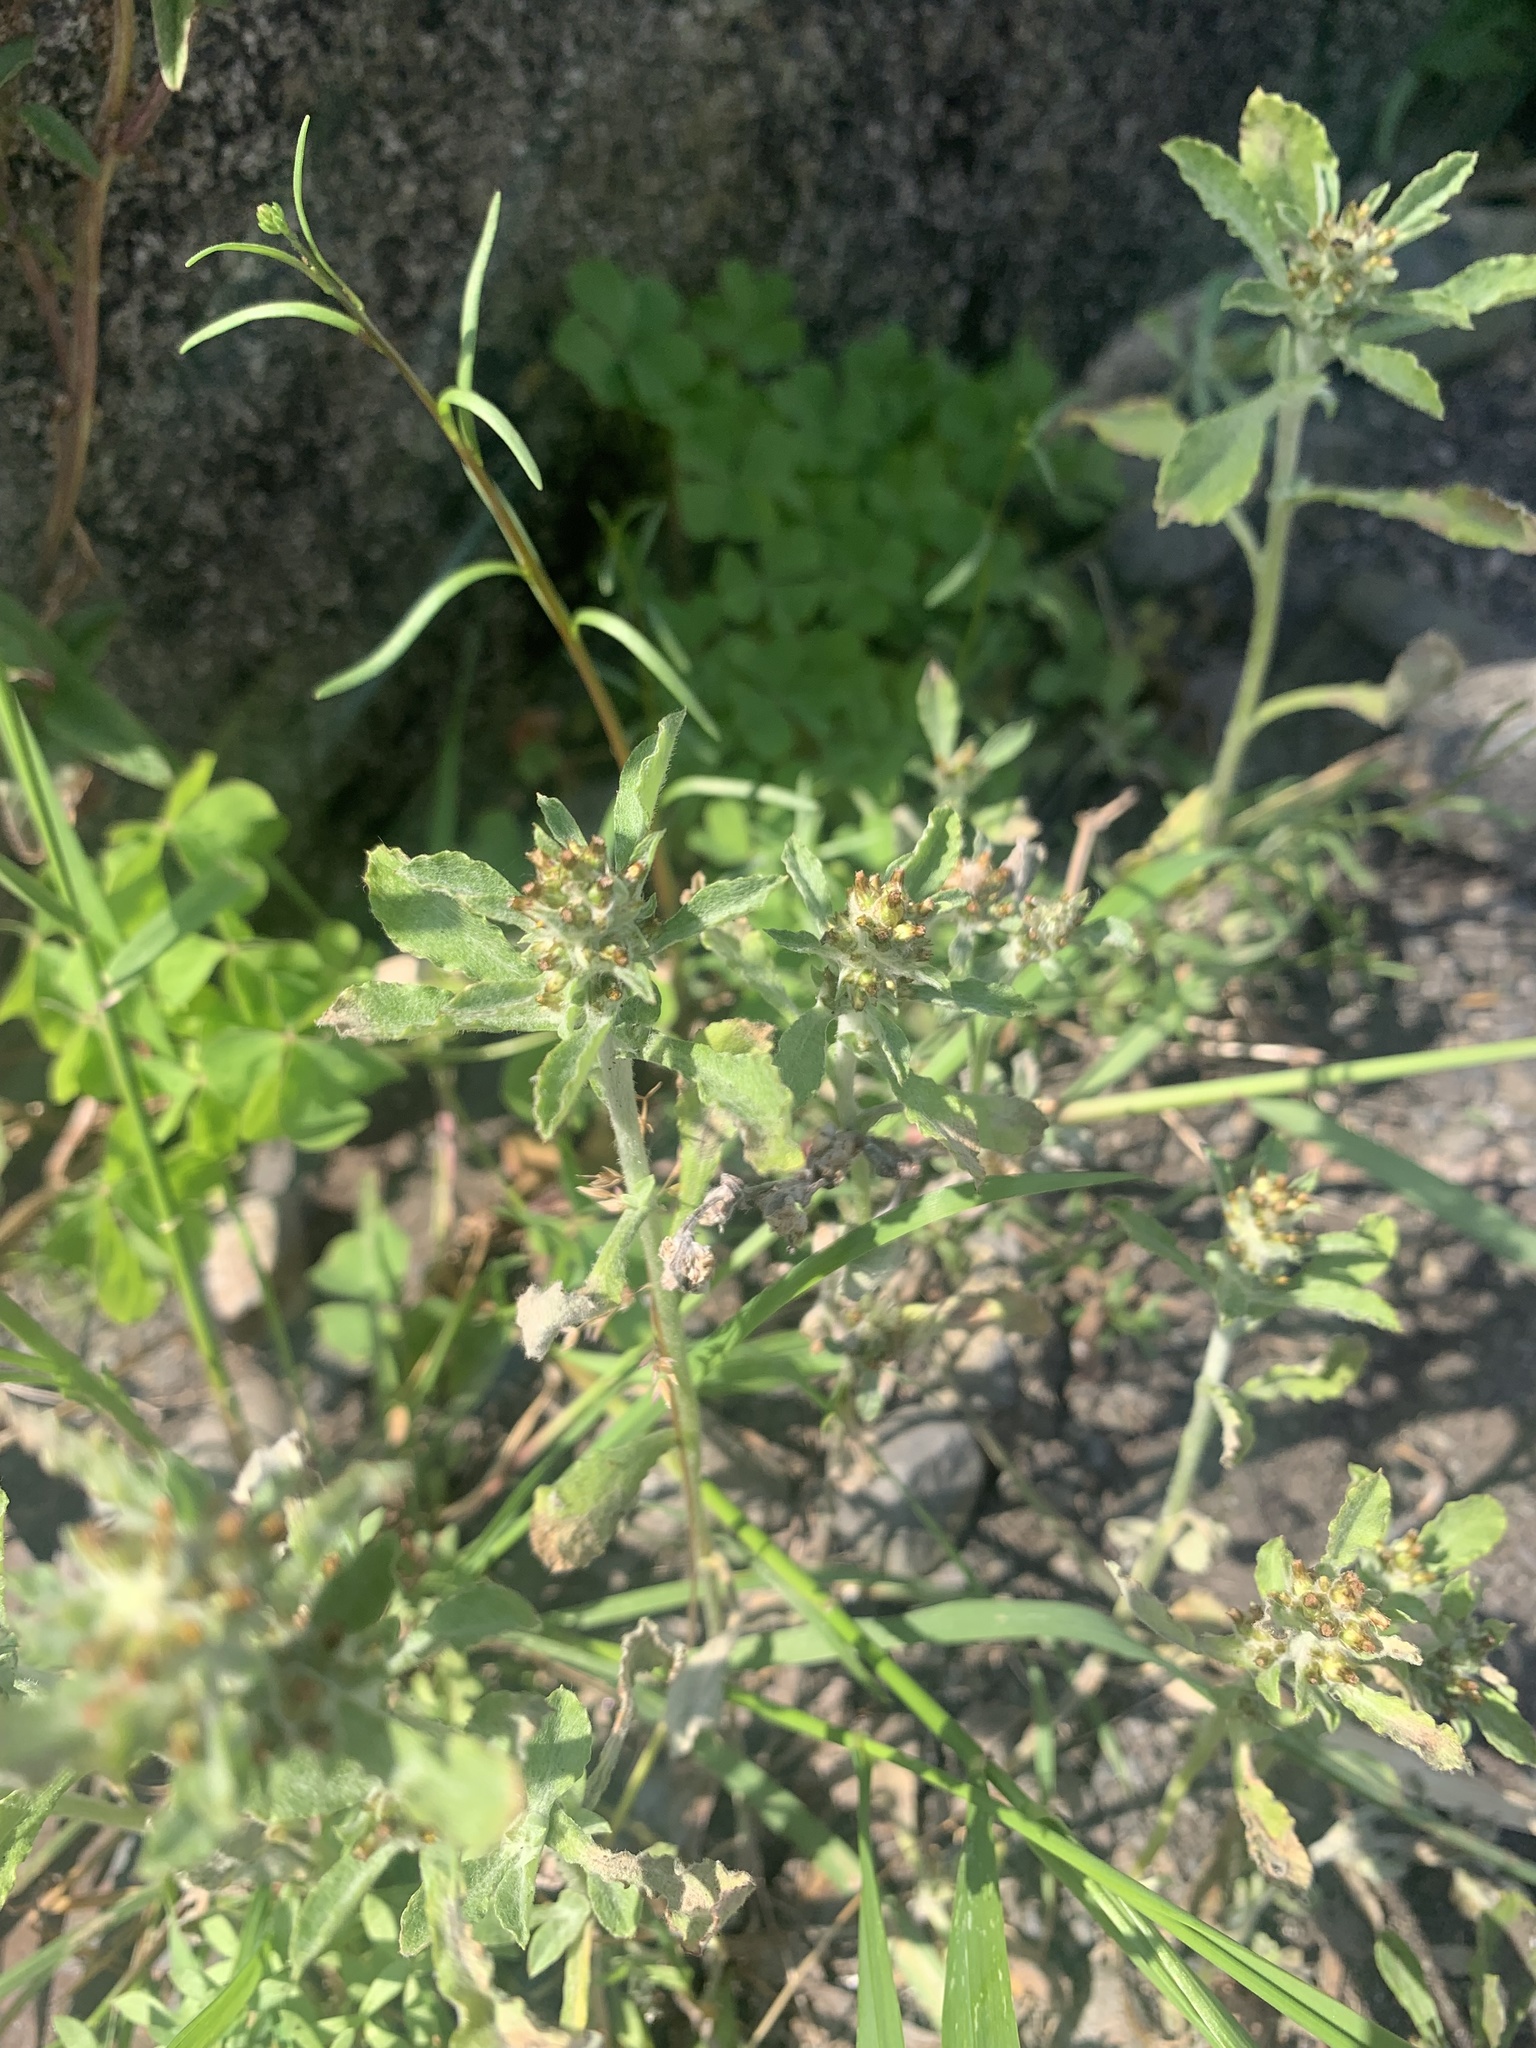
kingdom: Plantae
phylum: Tracheophyta
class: Magnoliopsida
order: Asterales
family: Asteraceae
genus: Gamochaeta
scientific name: Gamochaeta pensylvanica
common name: Pennsylvania everlasting
